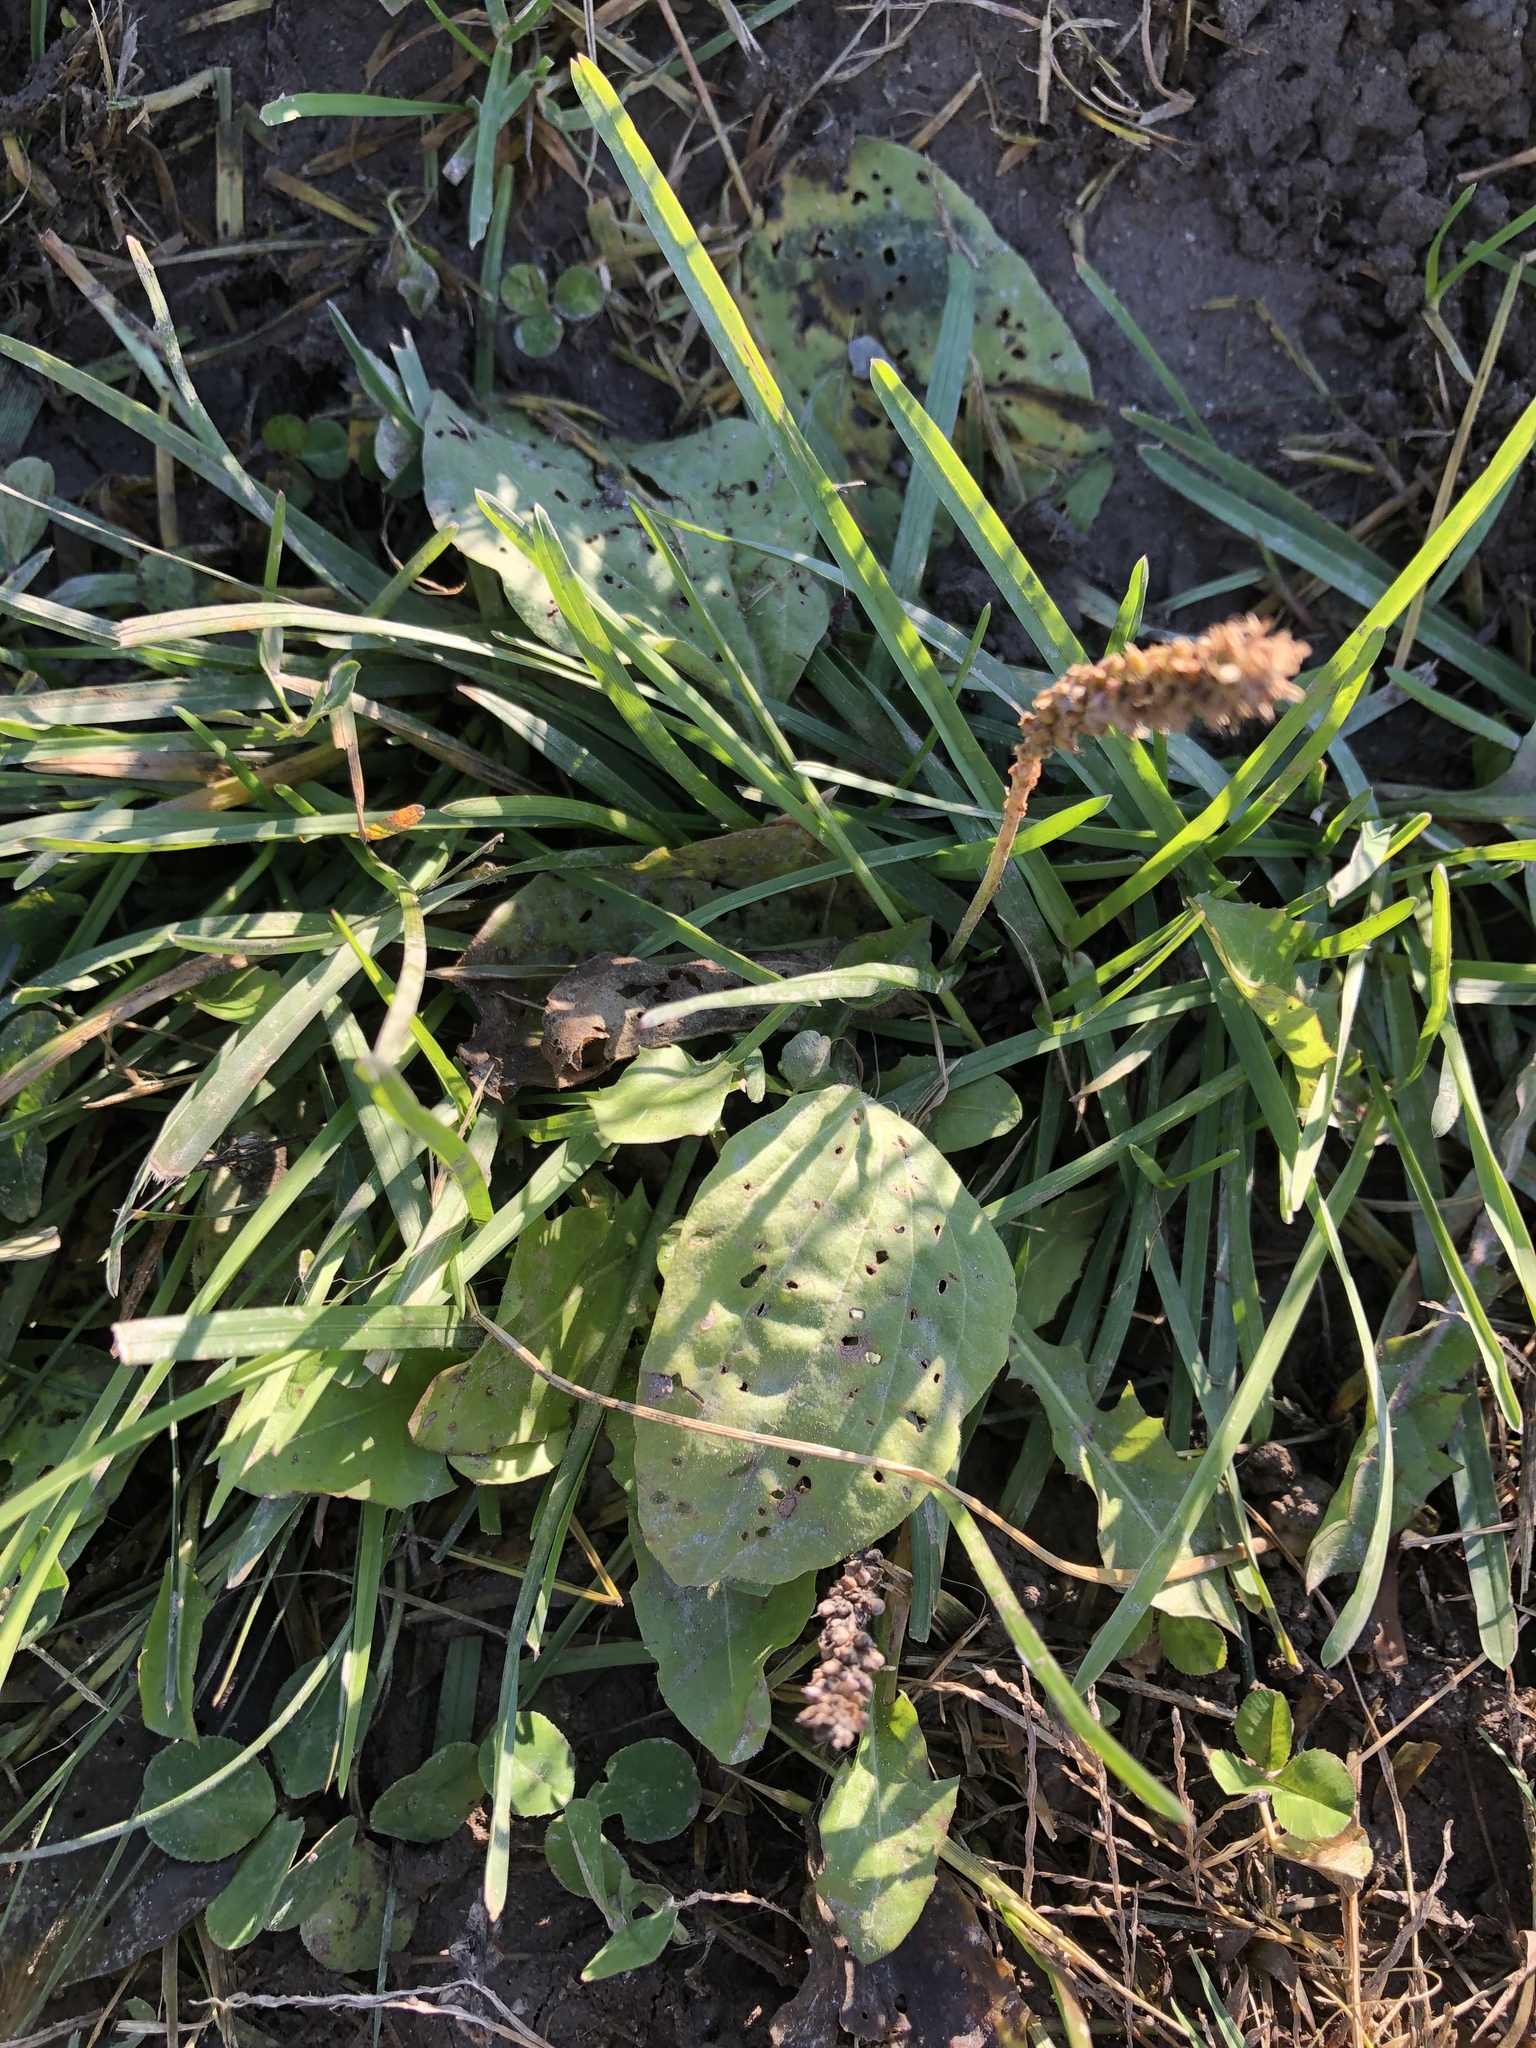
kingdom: Plantae
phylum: Tracheophyta
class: Magnoliopsida
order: Lamiales
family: Plantaginaceae
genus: Plantago
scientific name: Plantago major
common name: Common plantain
